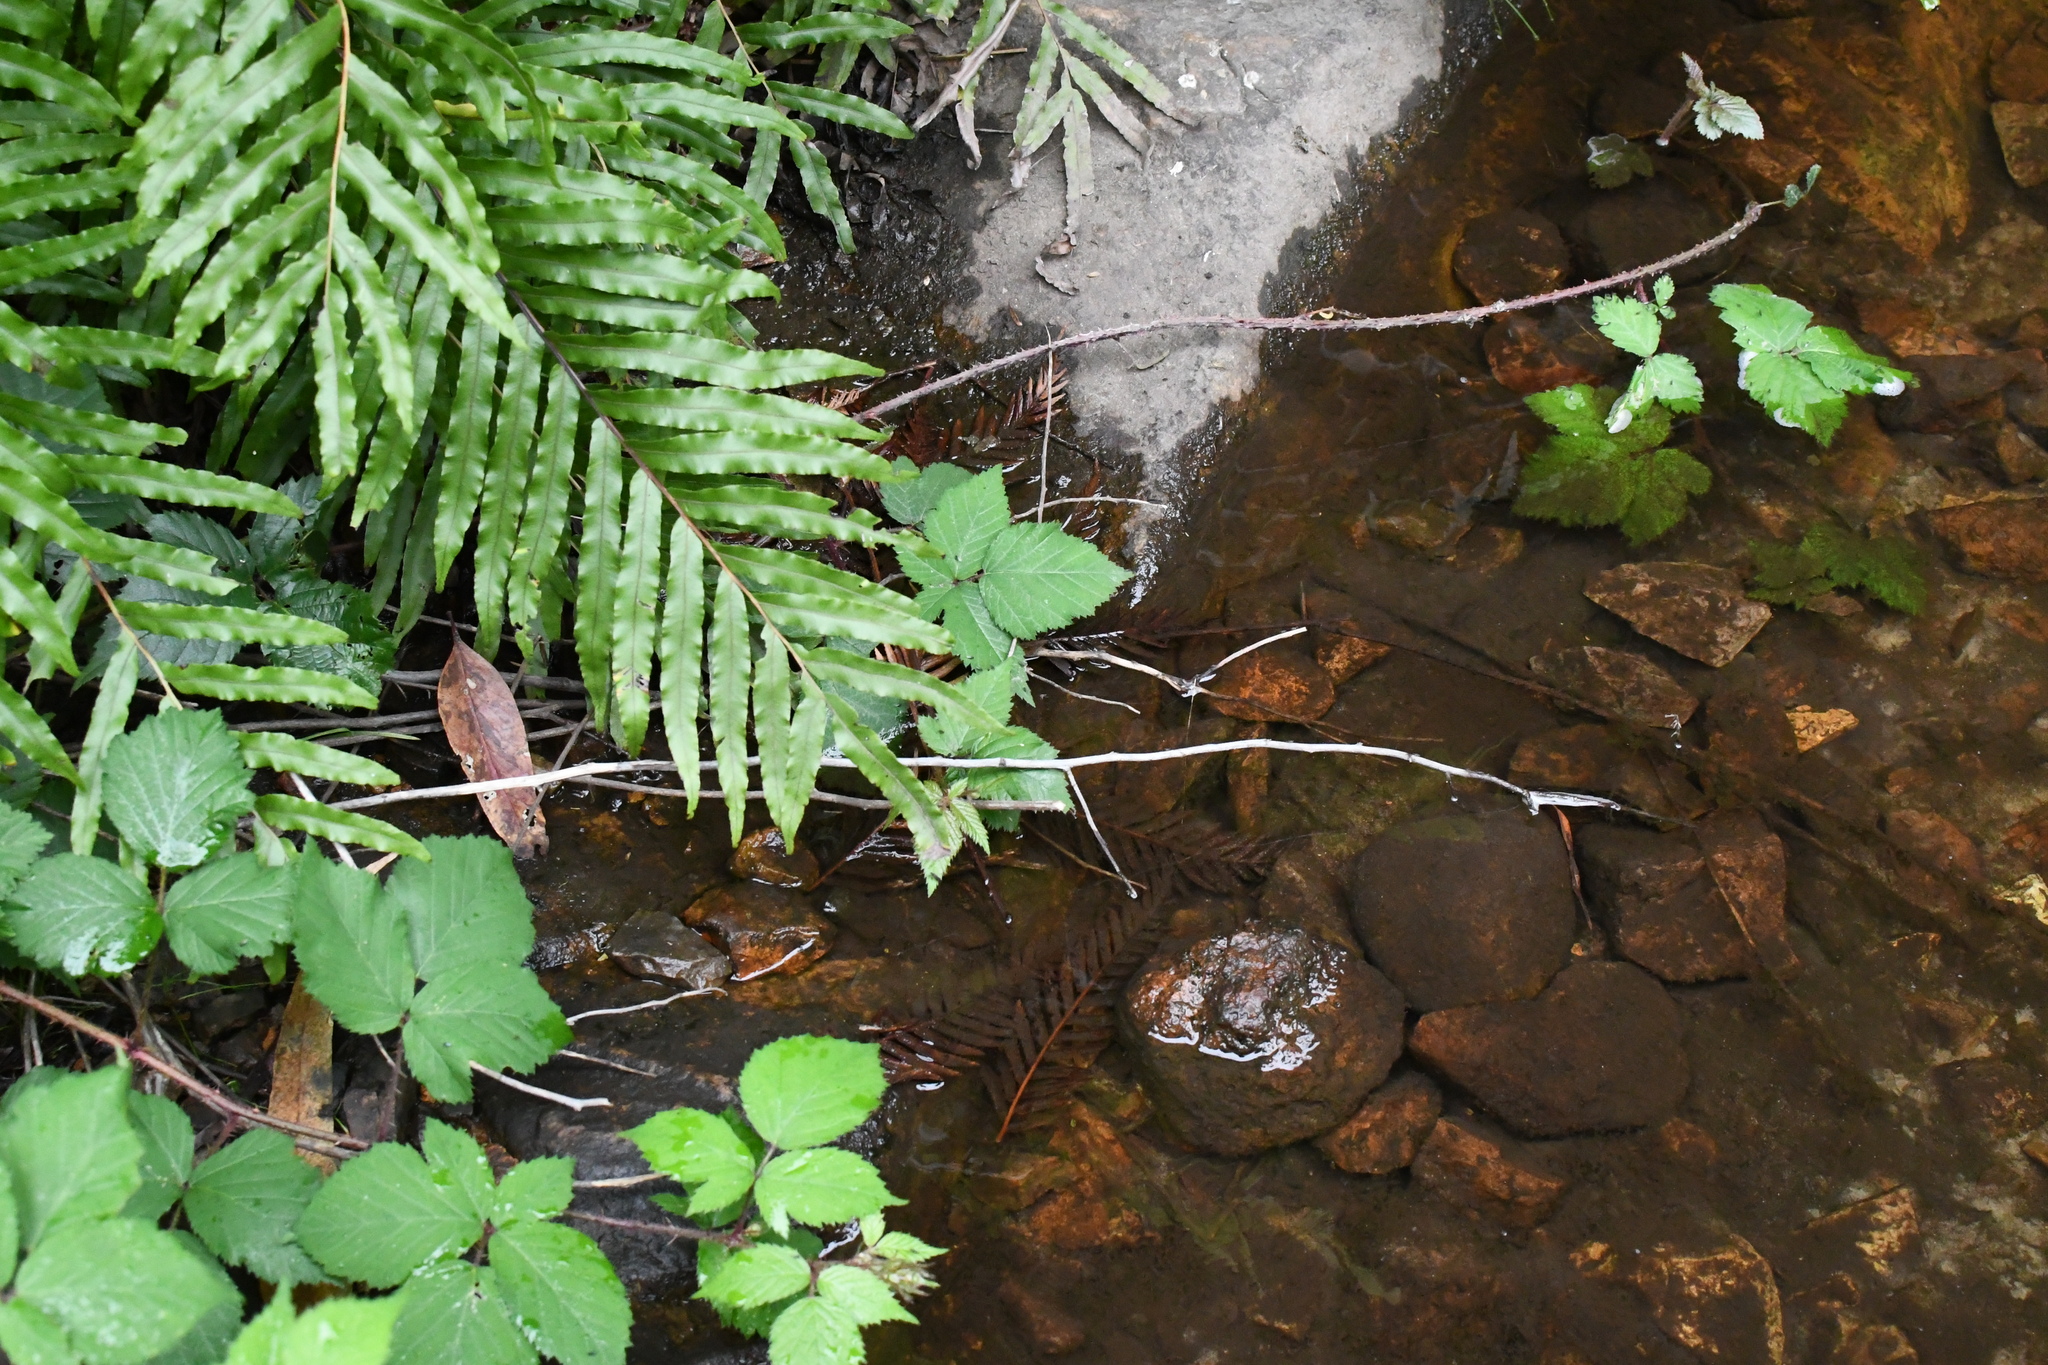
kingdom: Plantae
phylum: Tracheophyta
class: Polypodiopsida
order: Polypodiales
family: Blechnaceae
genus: Parablechnum
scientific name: Parablechnum minus
